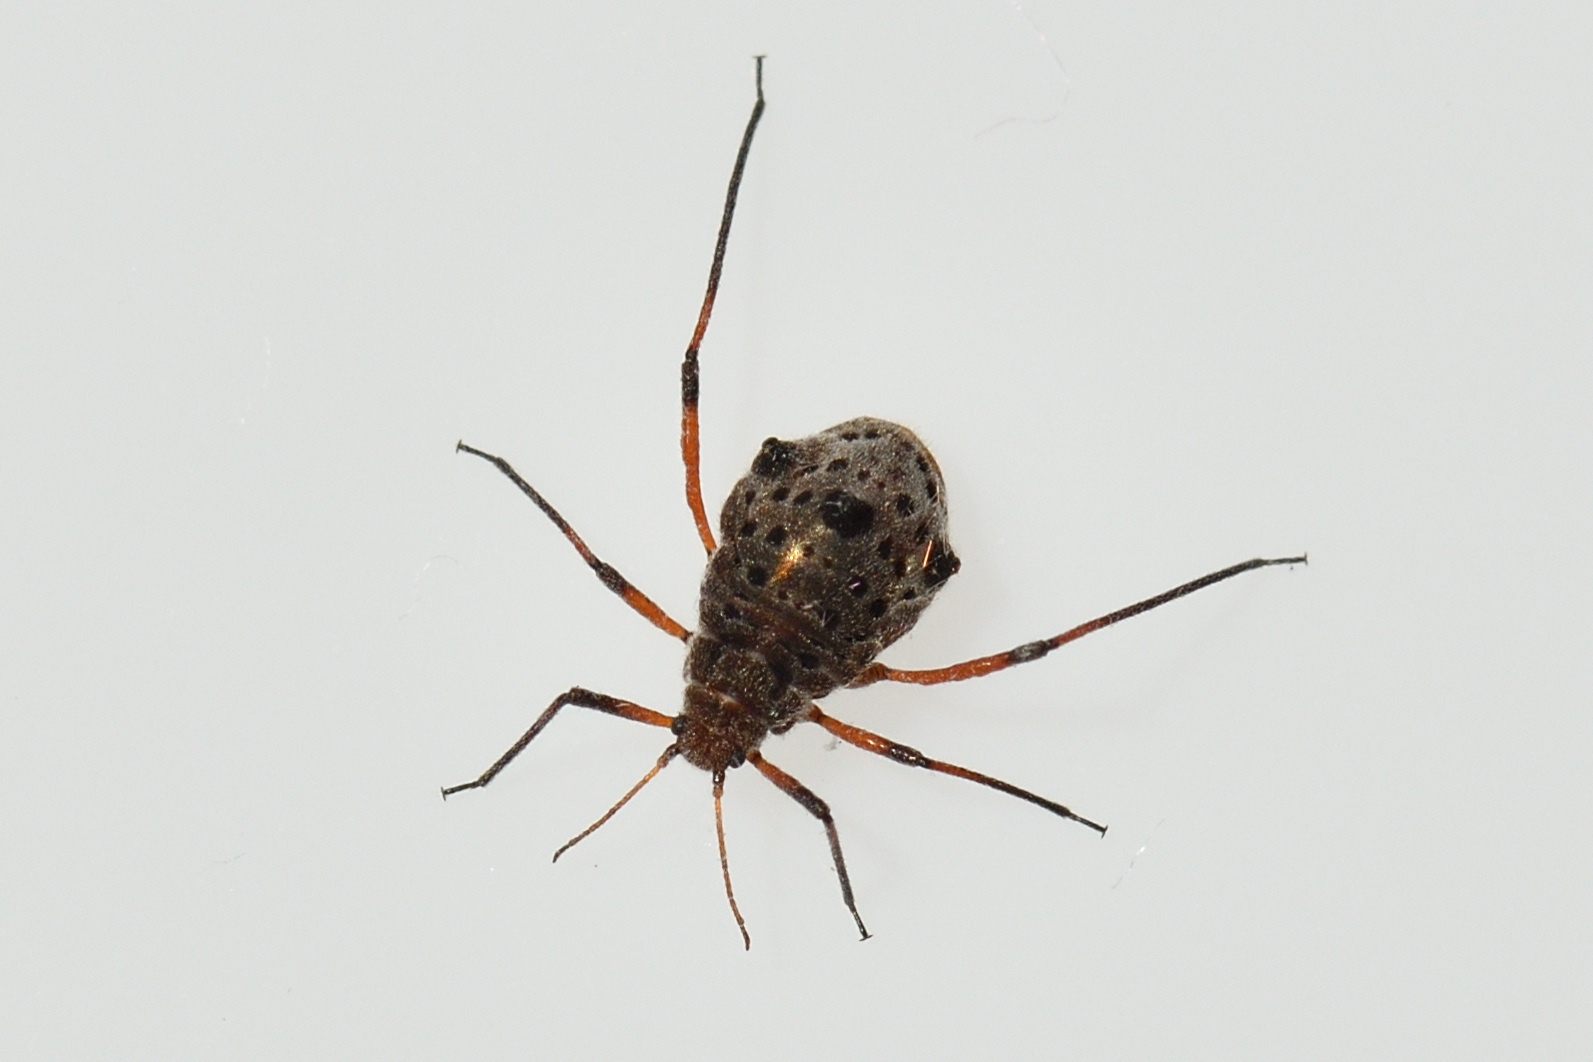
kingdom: Animalia
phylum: Arthropoda
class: Insecta
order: Hemiptera
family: Aphididae
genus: Tuberolachnus
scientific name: Tuberolachnus salignus
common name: Giant willow aphid
